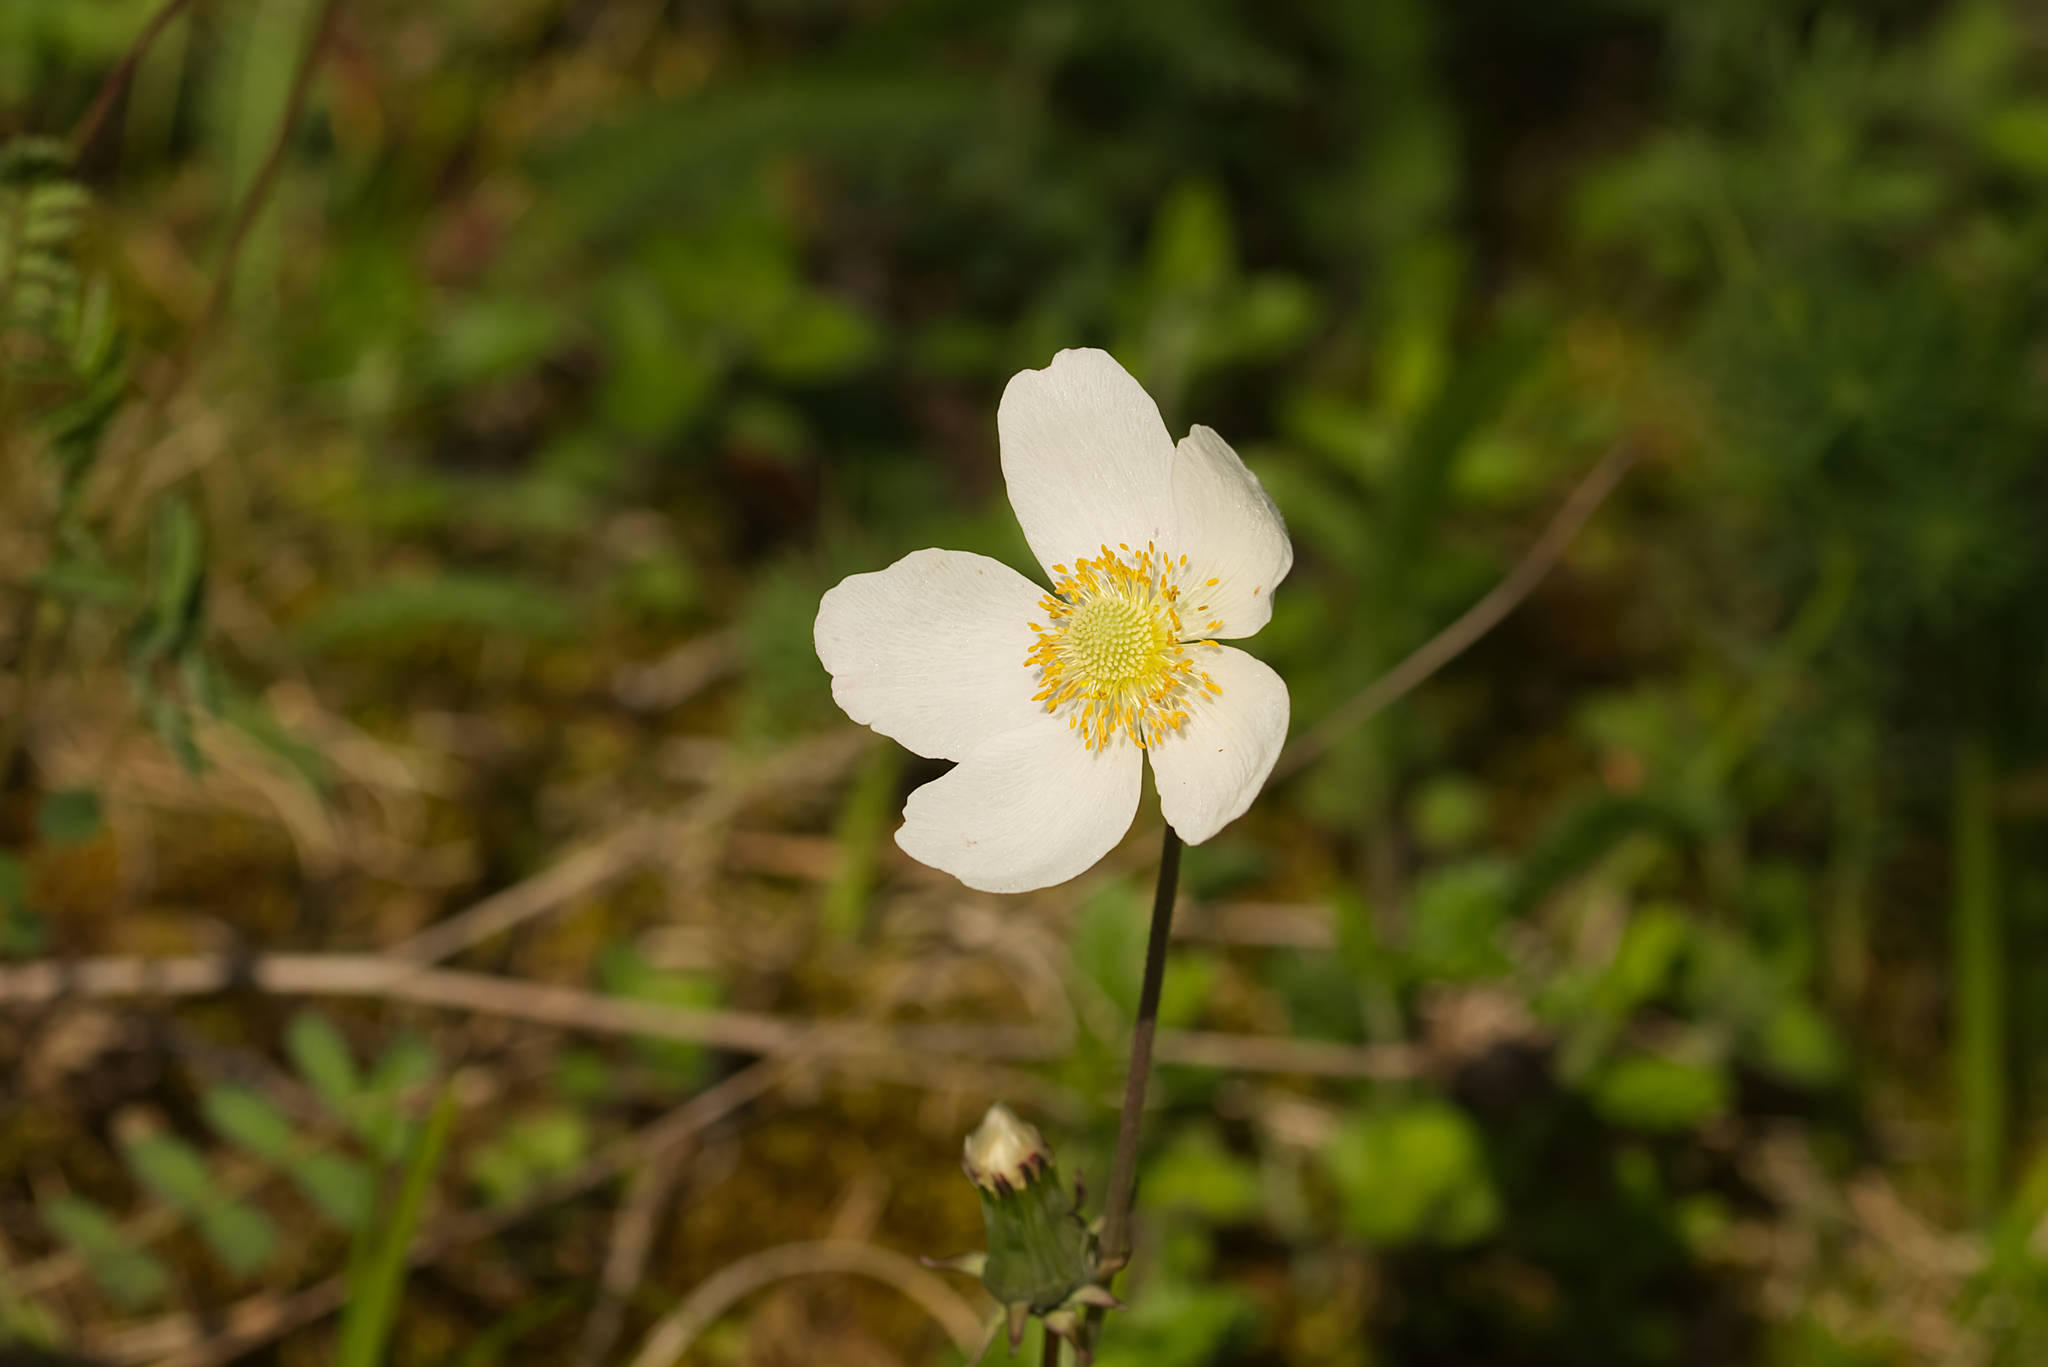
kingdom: Plantae
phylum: Tracheophyta
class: Magnoliopsida
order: Ranunculales
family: Ranunculaceae
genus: Anemone
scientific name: Anemone sylvestris
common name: Snowdrop anemone
